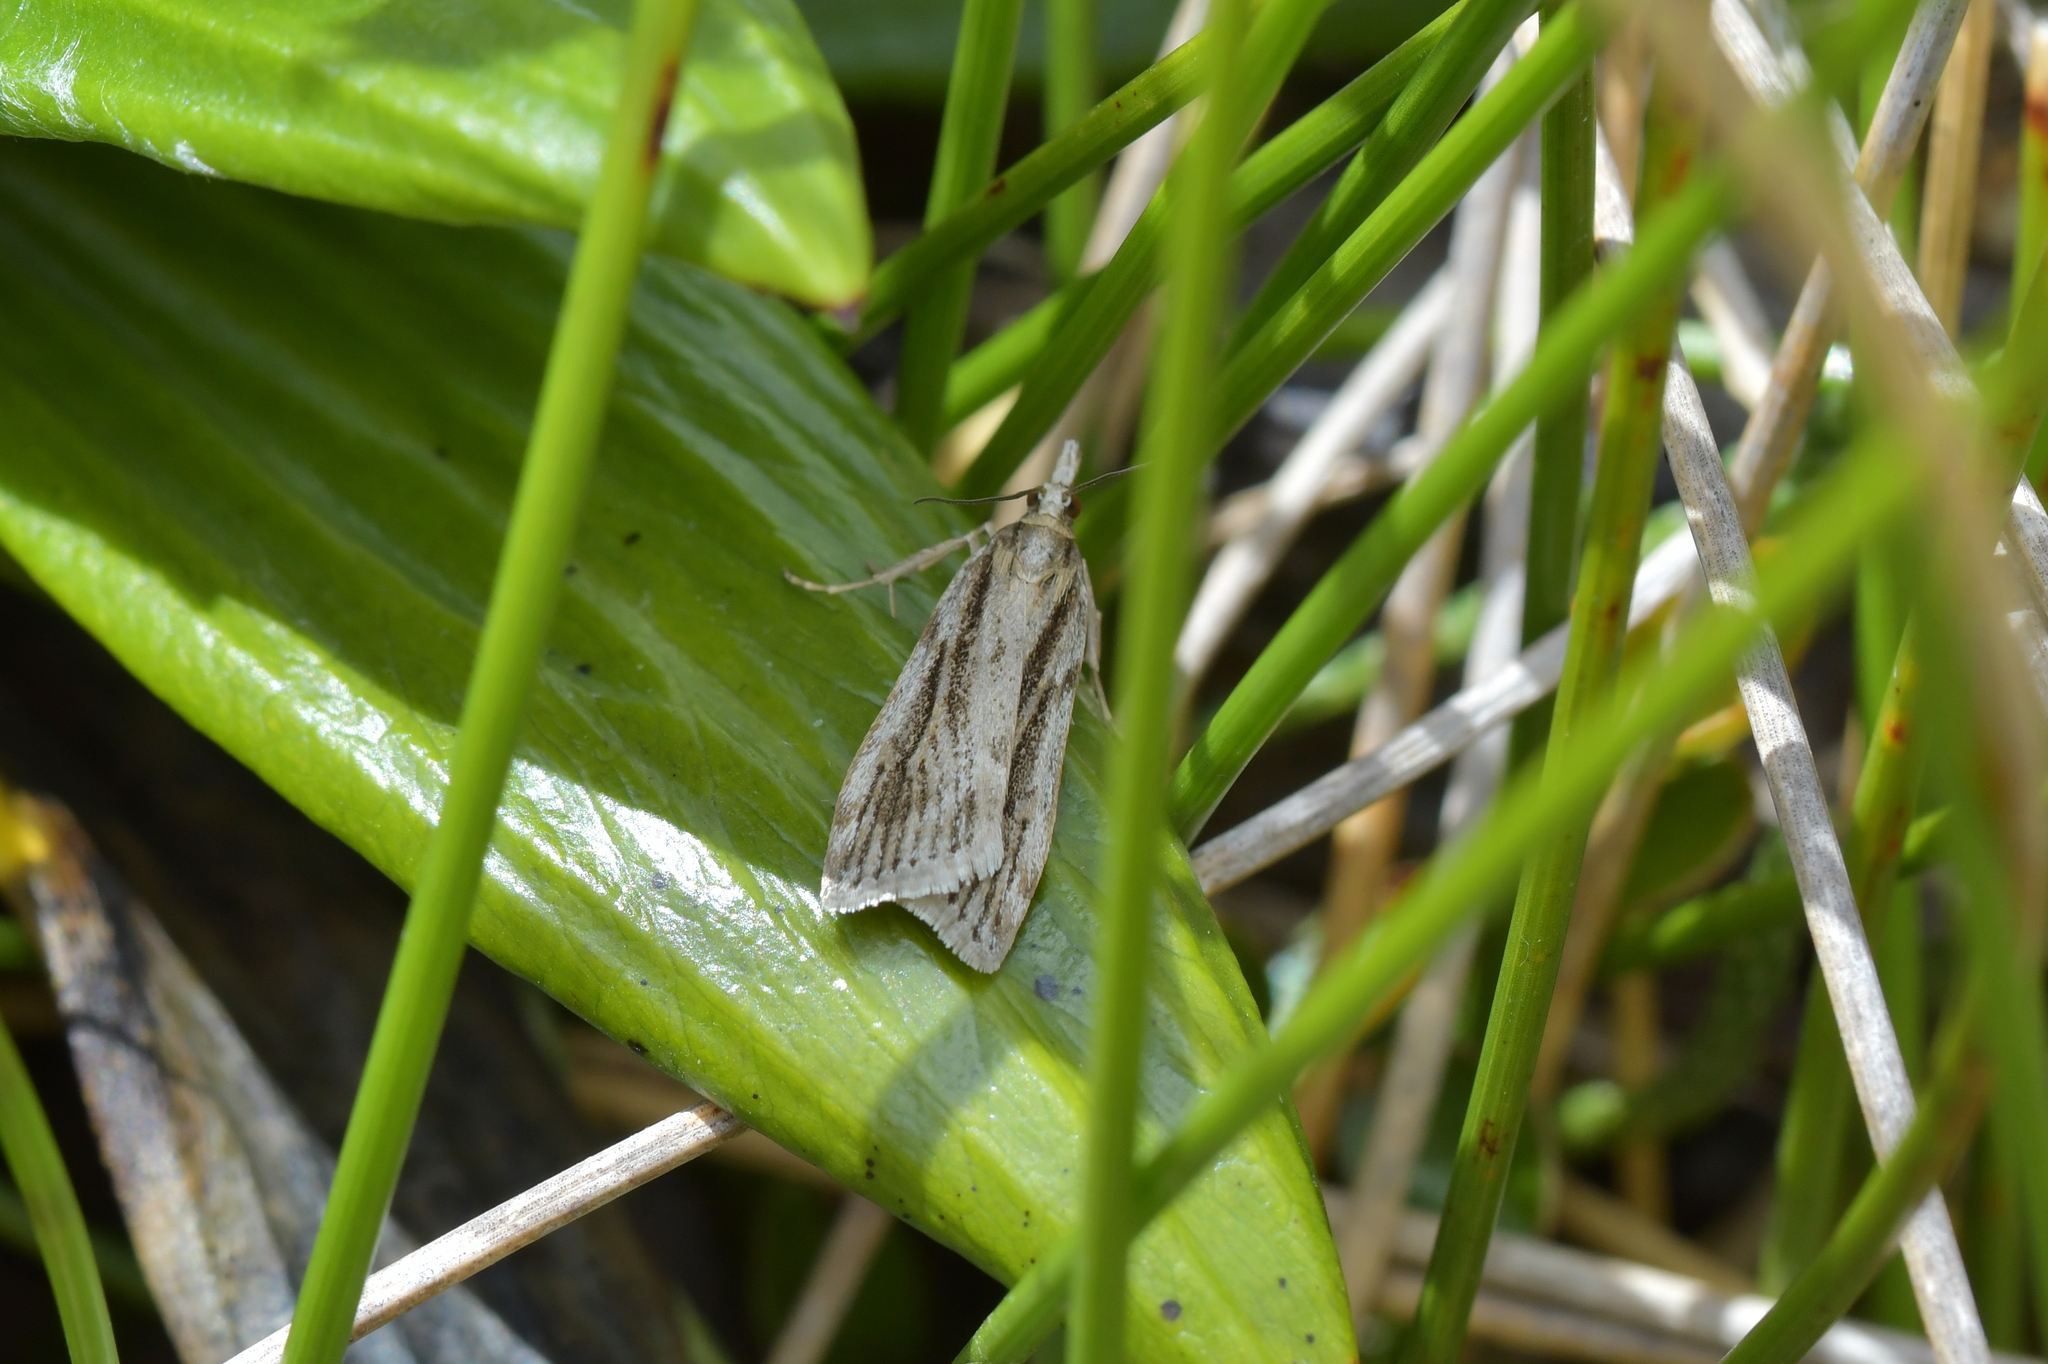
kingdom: Animalia
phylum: Arthropoda
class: Insecta
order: Lepidoptera
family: Crambidae
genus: Eudonia
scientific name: Eudonia crypsinoa
